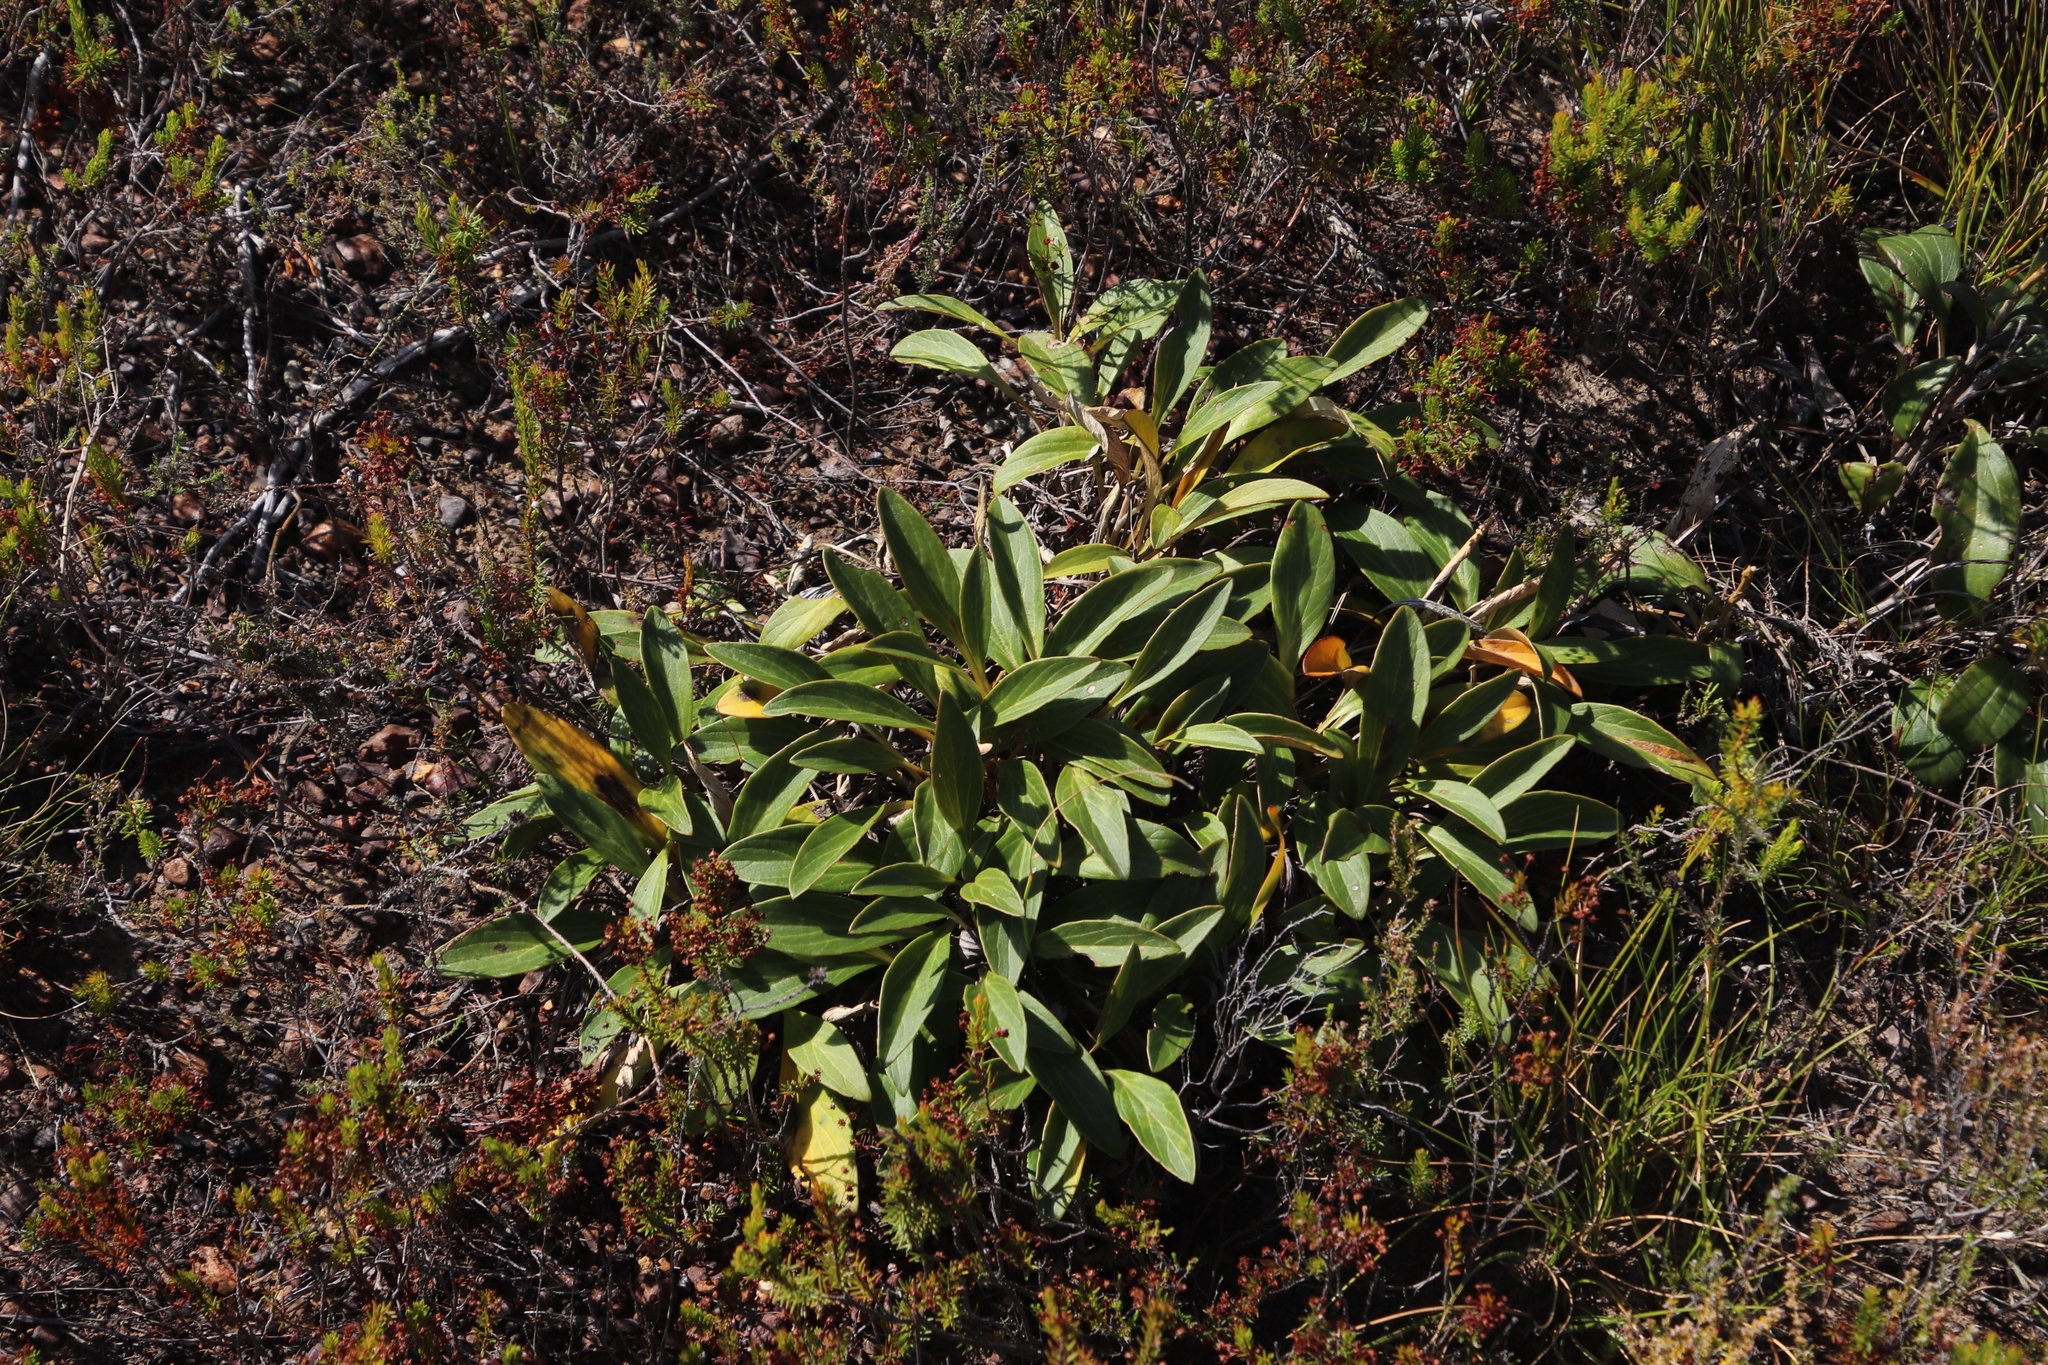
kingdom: Plantae
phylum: Tracheophyta
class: Magnoliopsida
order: Asterales
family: Asteraceae
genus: Berkheya
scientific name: Berkheya herbacea
